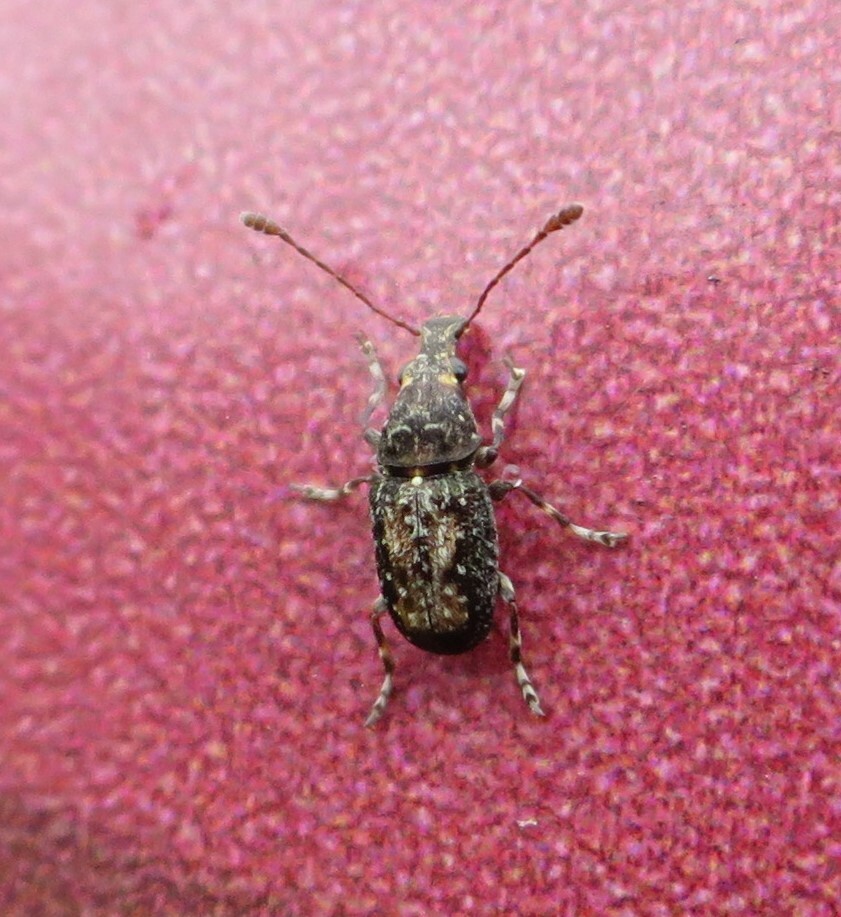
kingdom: Animalia
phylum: Arthropoda
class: Insecta
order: Coleoptera
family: Anthribidae
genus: Sharpius
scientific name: Sharpius
